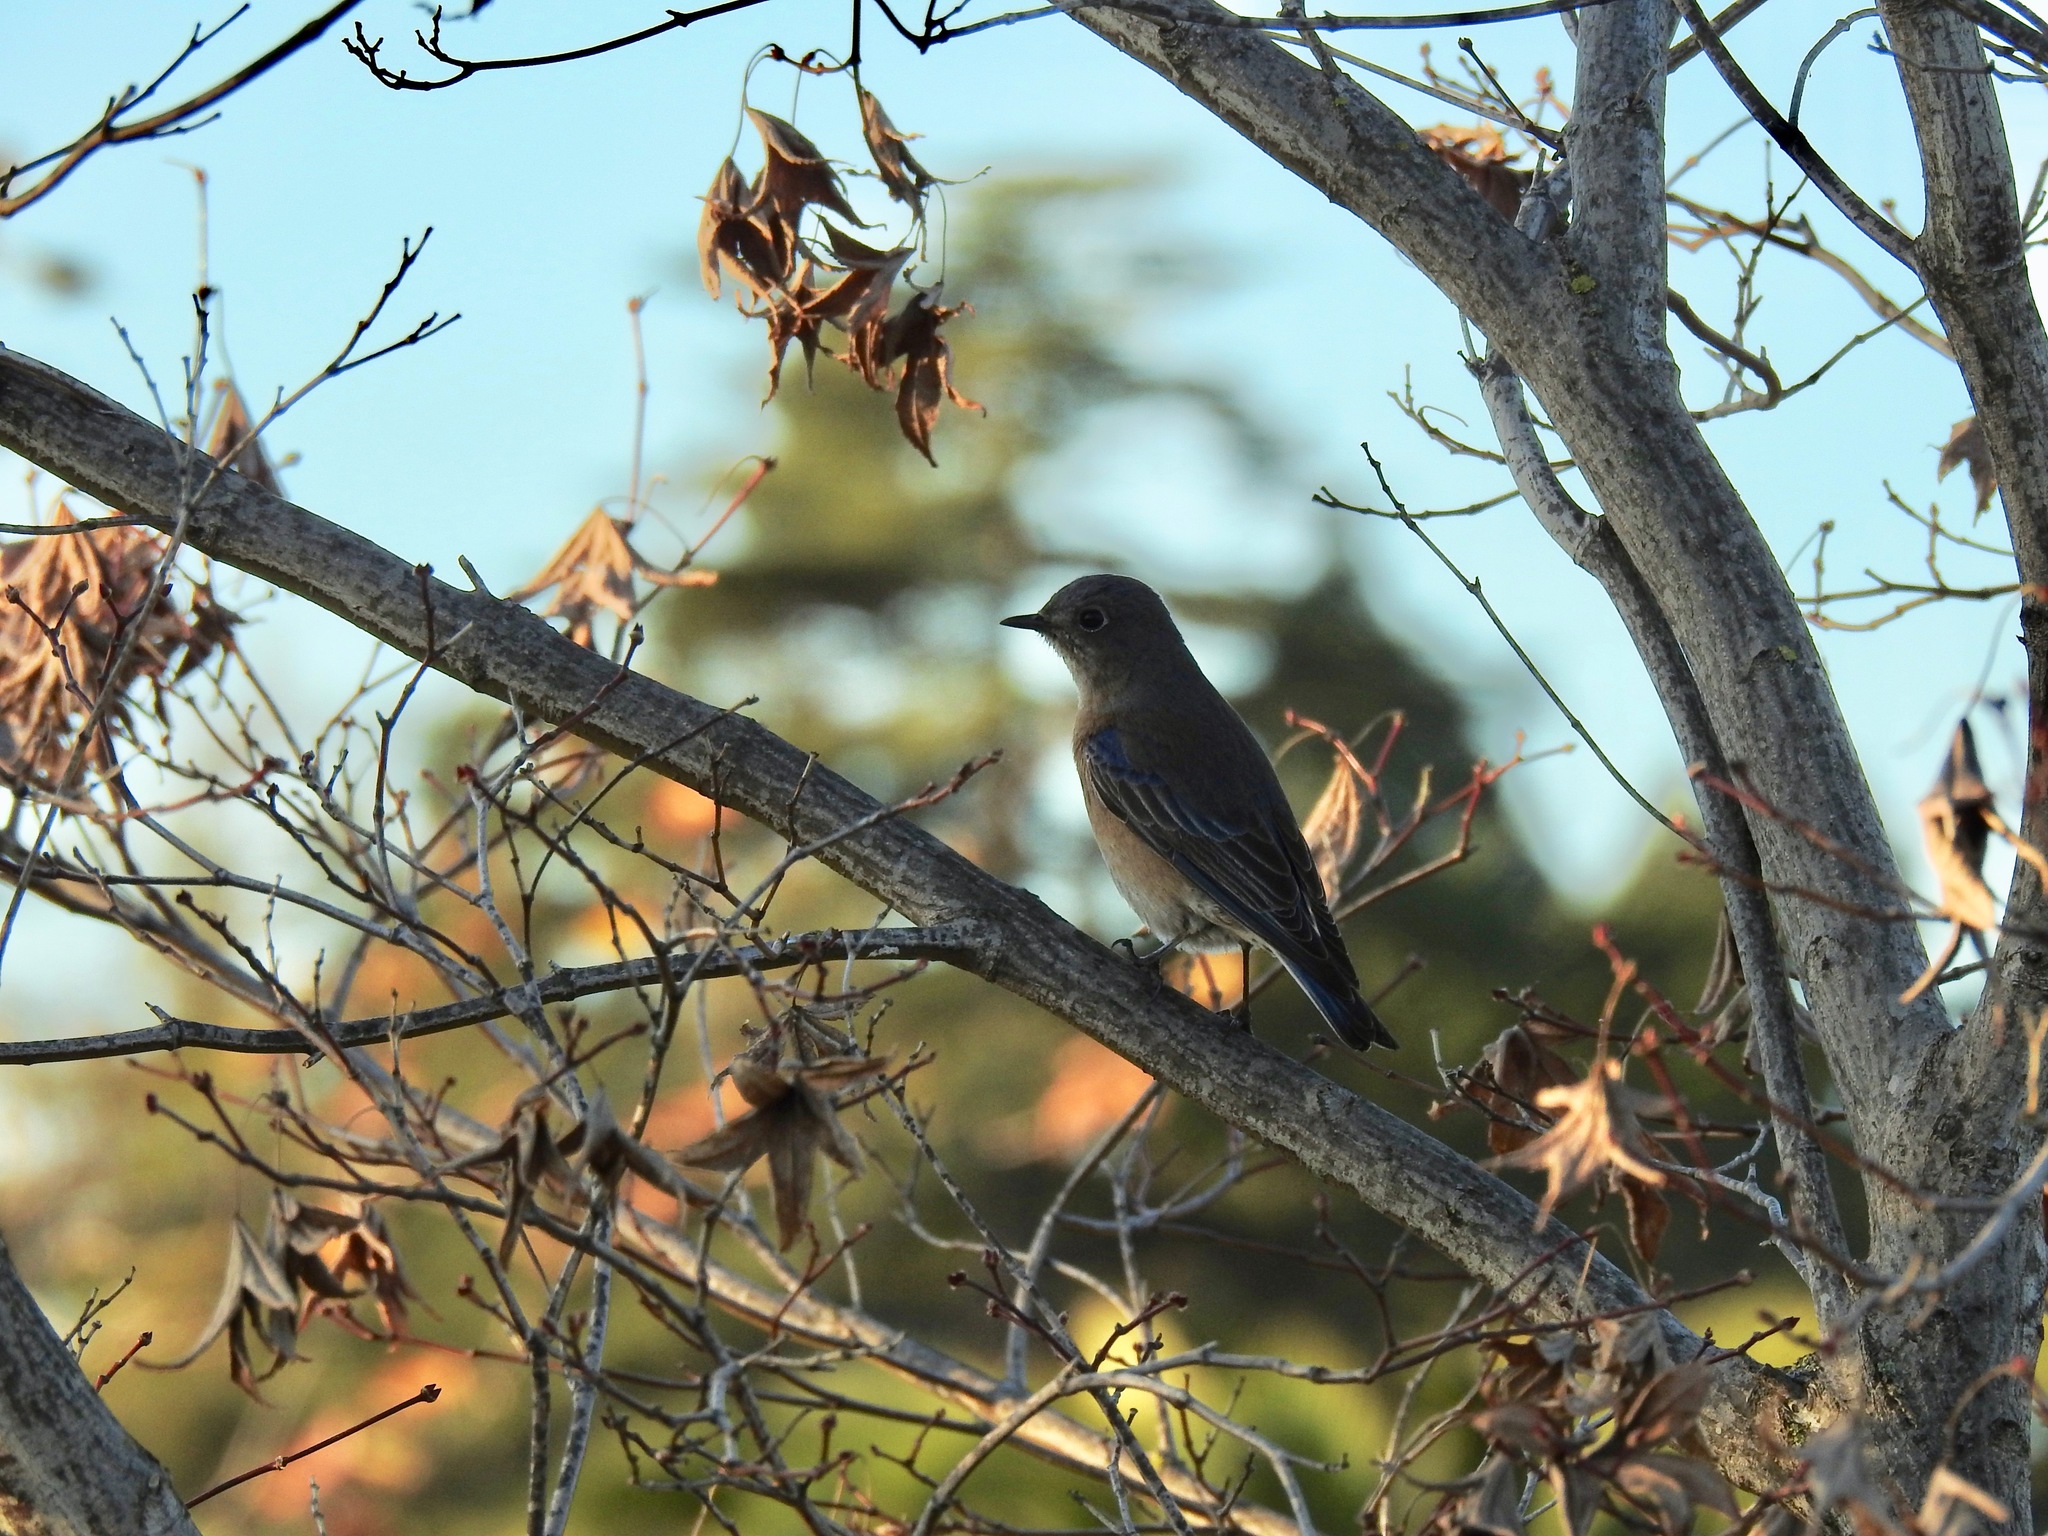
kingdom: Animalia
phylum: Chordata
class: Aves
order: Passeriformes
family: Turdidae
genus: Sialia
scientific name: Sialia mexicana
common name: Western bluebird
